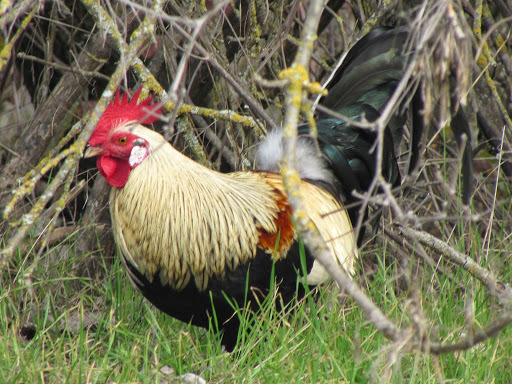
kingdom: Animalia
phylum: Chordata
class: Aves
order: Galliformes
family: Phasianidae
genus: Gallus
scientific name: Gallus gallus
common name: Red junglefowl
